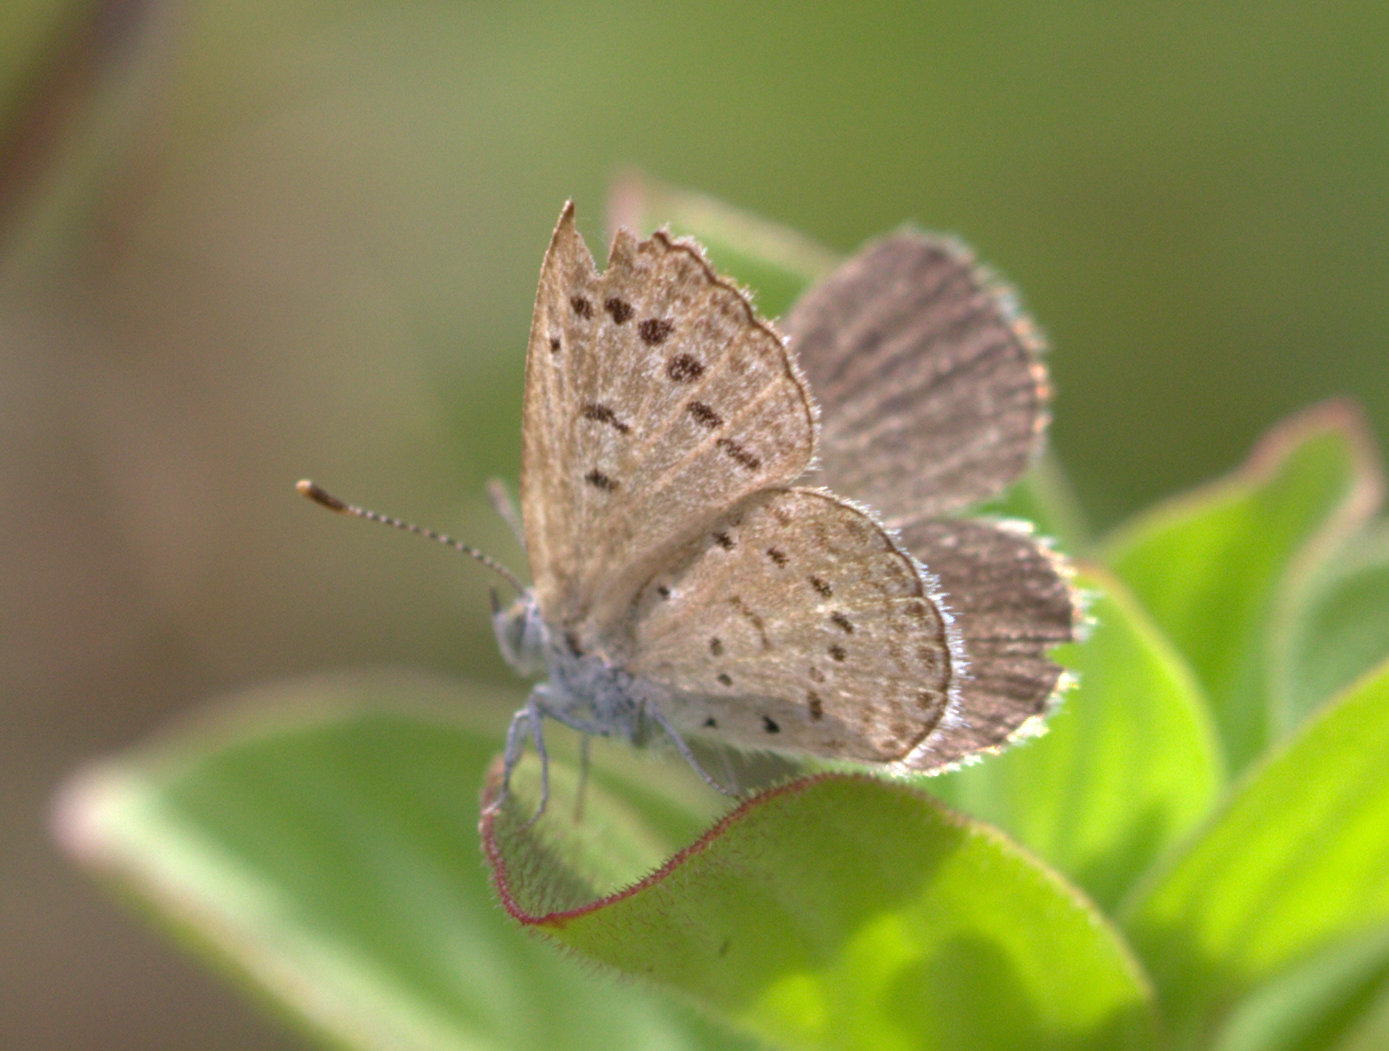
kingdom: Animalia
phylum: Arthropoda
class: Insecta
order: Lepidoptera
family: Lycaenidae
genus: Pseudozizeeria
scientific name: Pseudozizeeria maha
